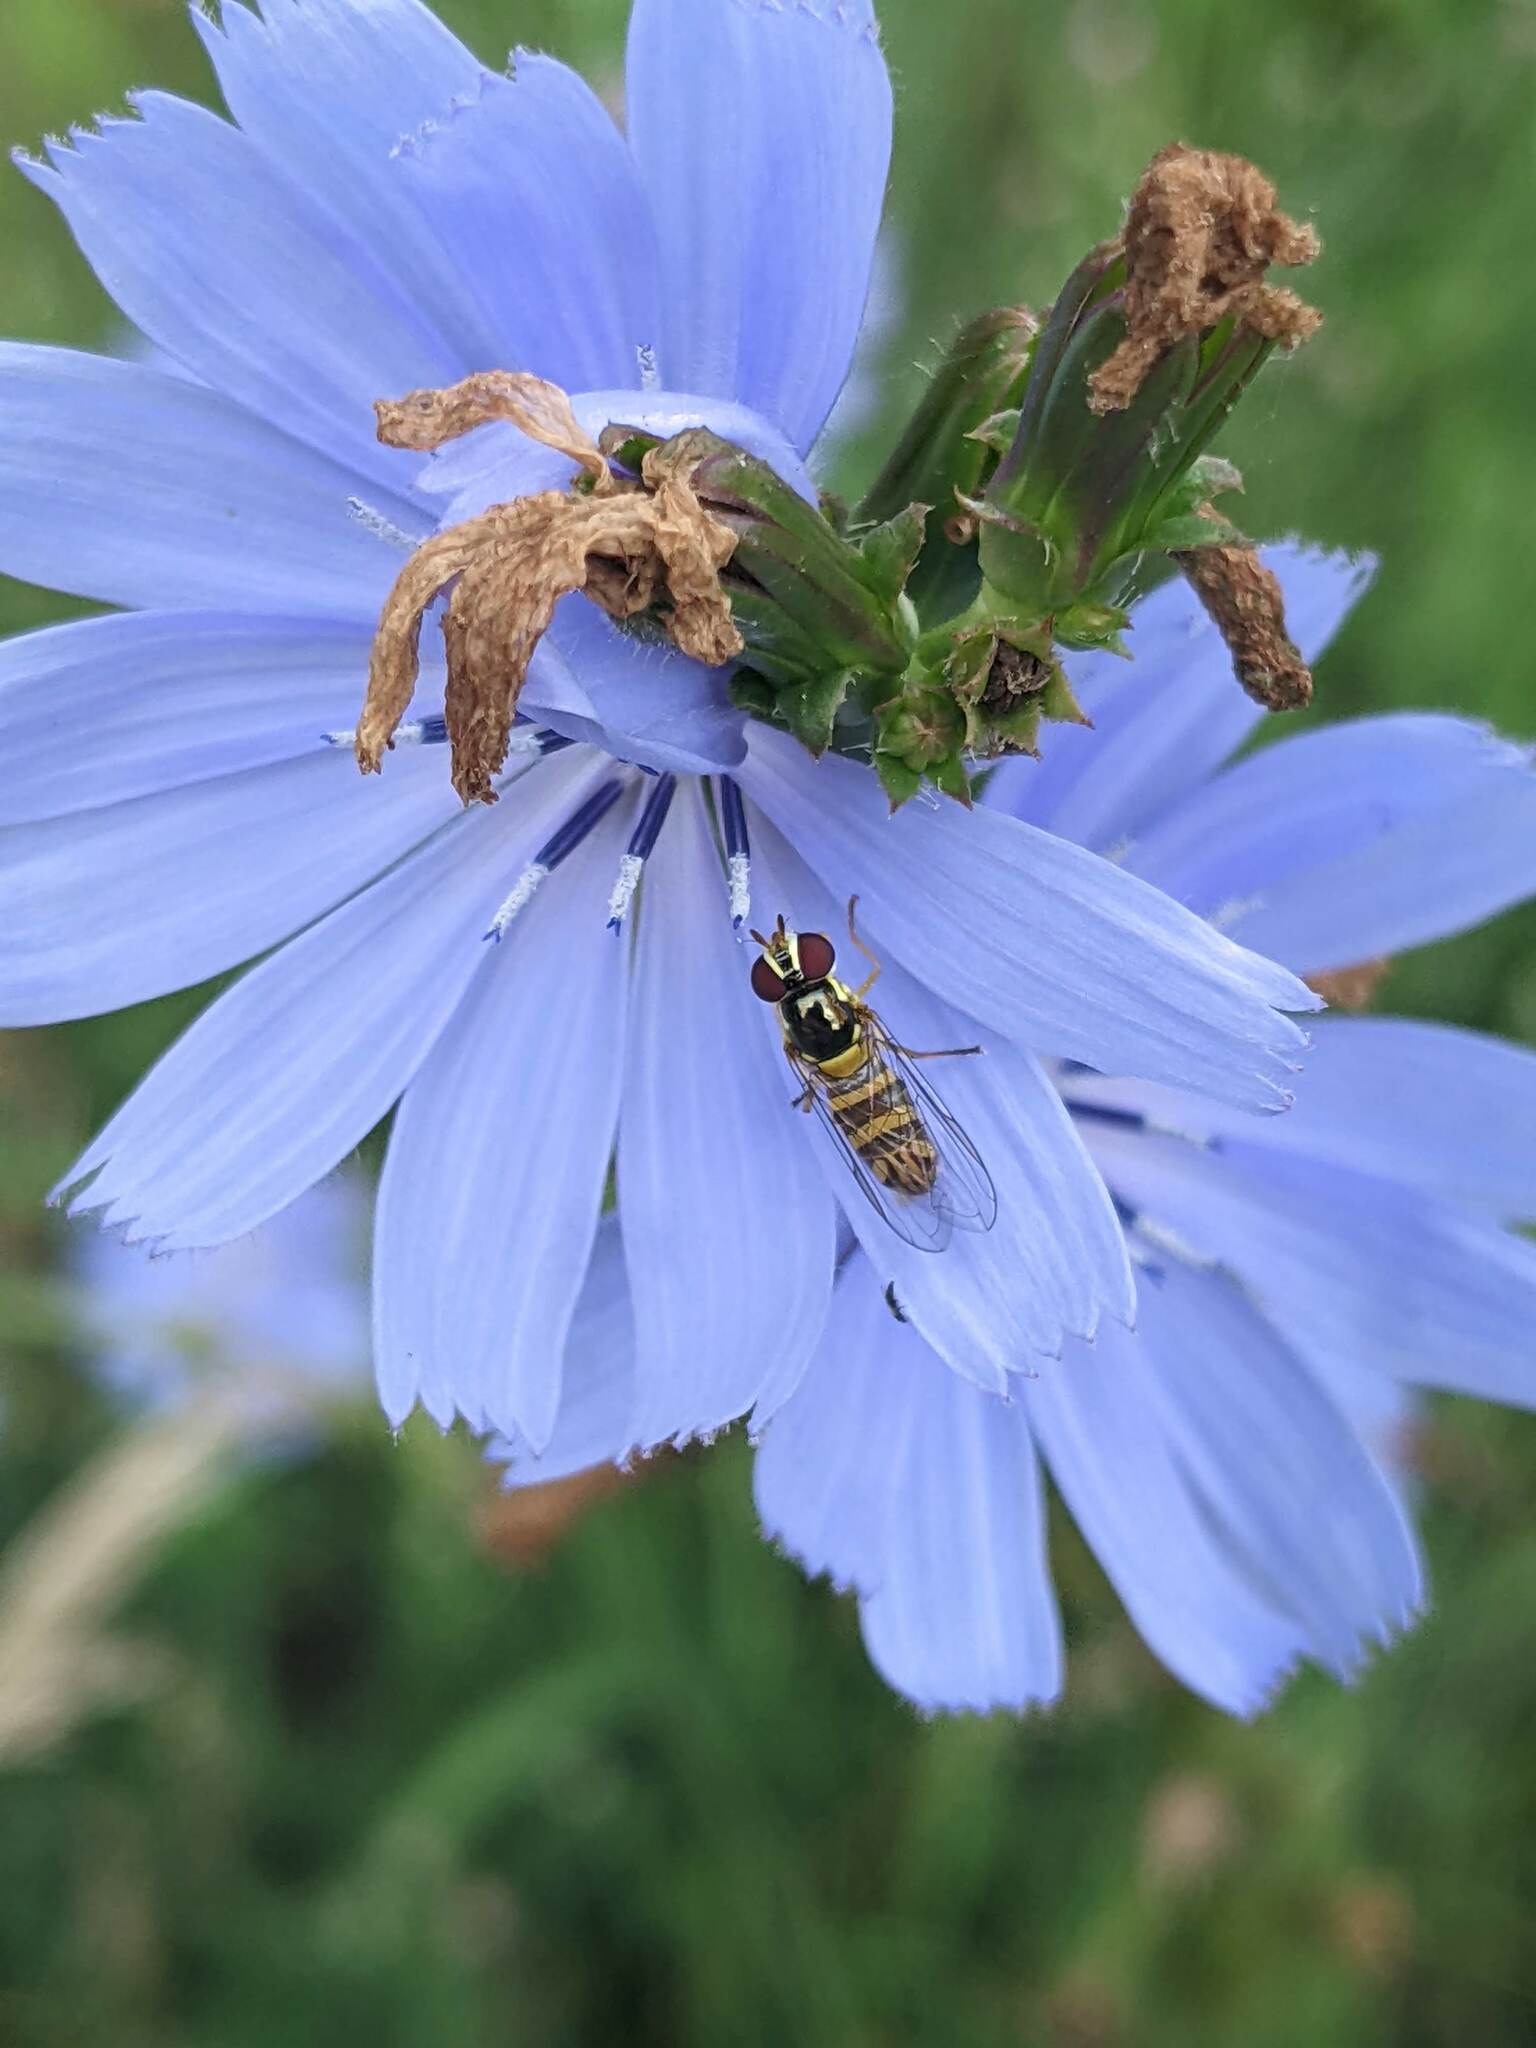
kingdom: Animalia
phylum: Arthropoda
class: Insecta
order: Diptera
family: Syrphidae
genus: Allograpta
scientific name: Allograpta obliqua
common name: Common oblique syrphid
